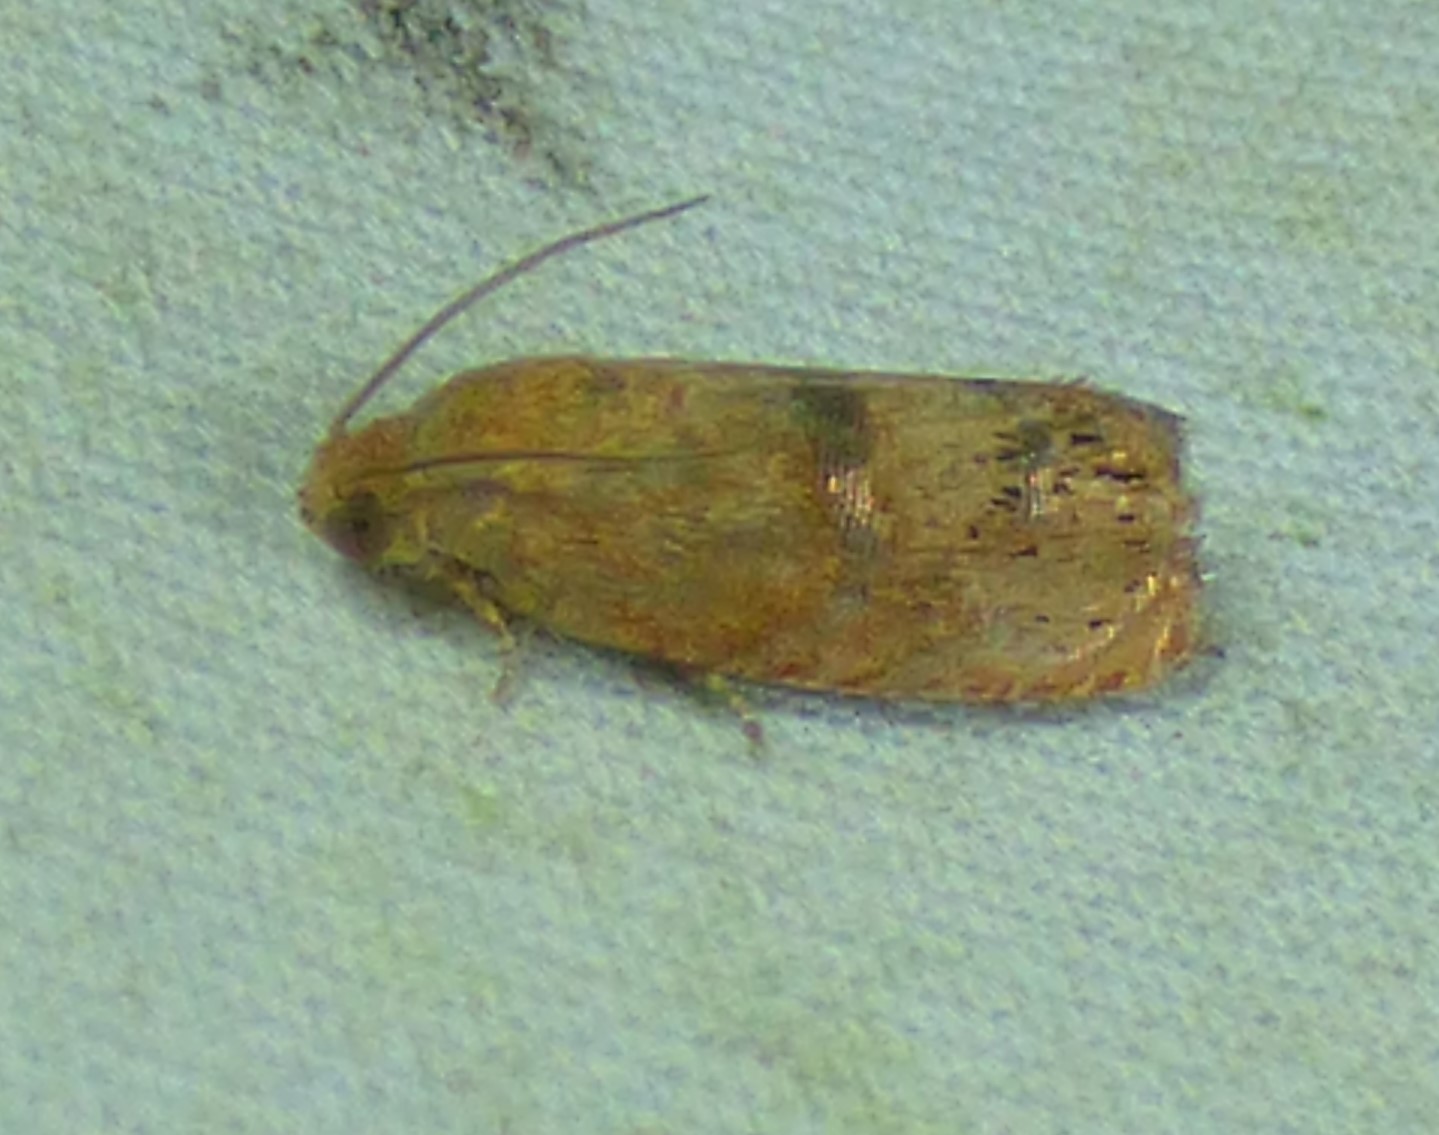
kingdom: Animalia
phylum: Arthropoda
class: Insecta
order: Lepidoptera
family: Tortricidae
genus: Cydia
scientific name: Cydia latiferreana
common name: Filbertworm moth
